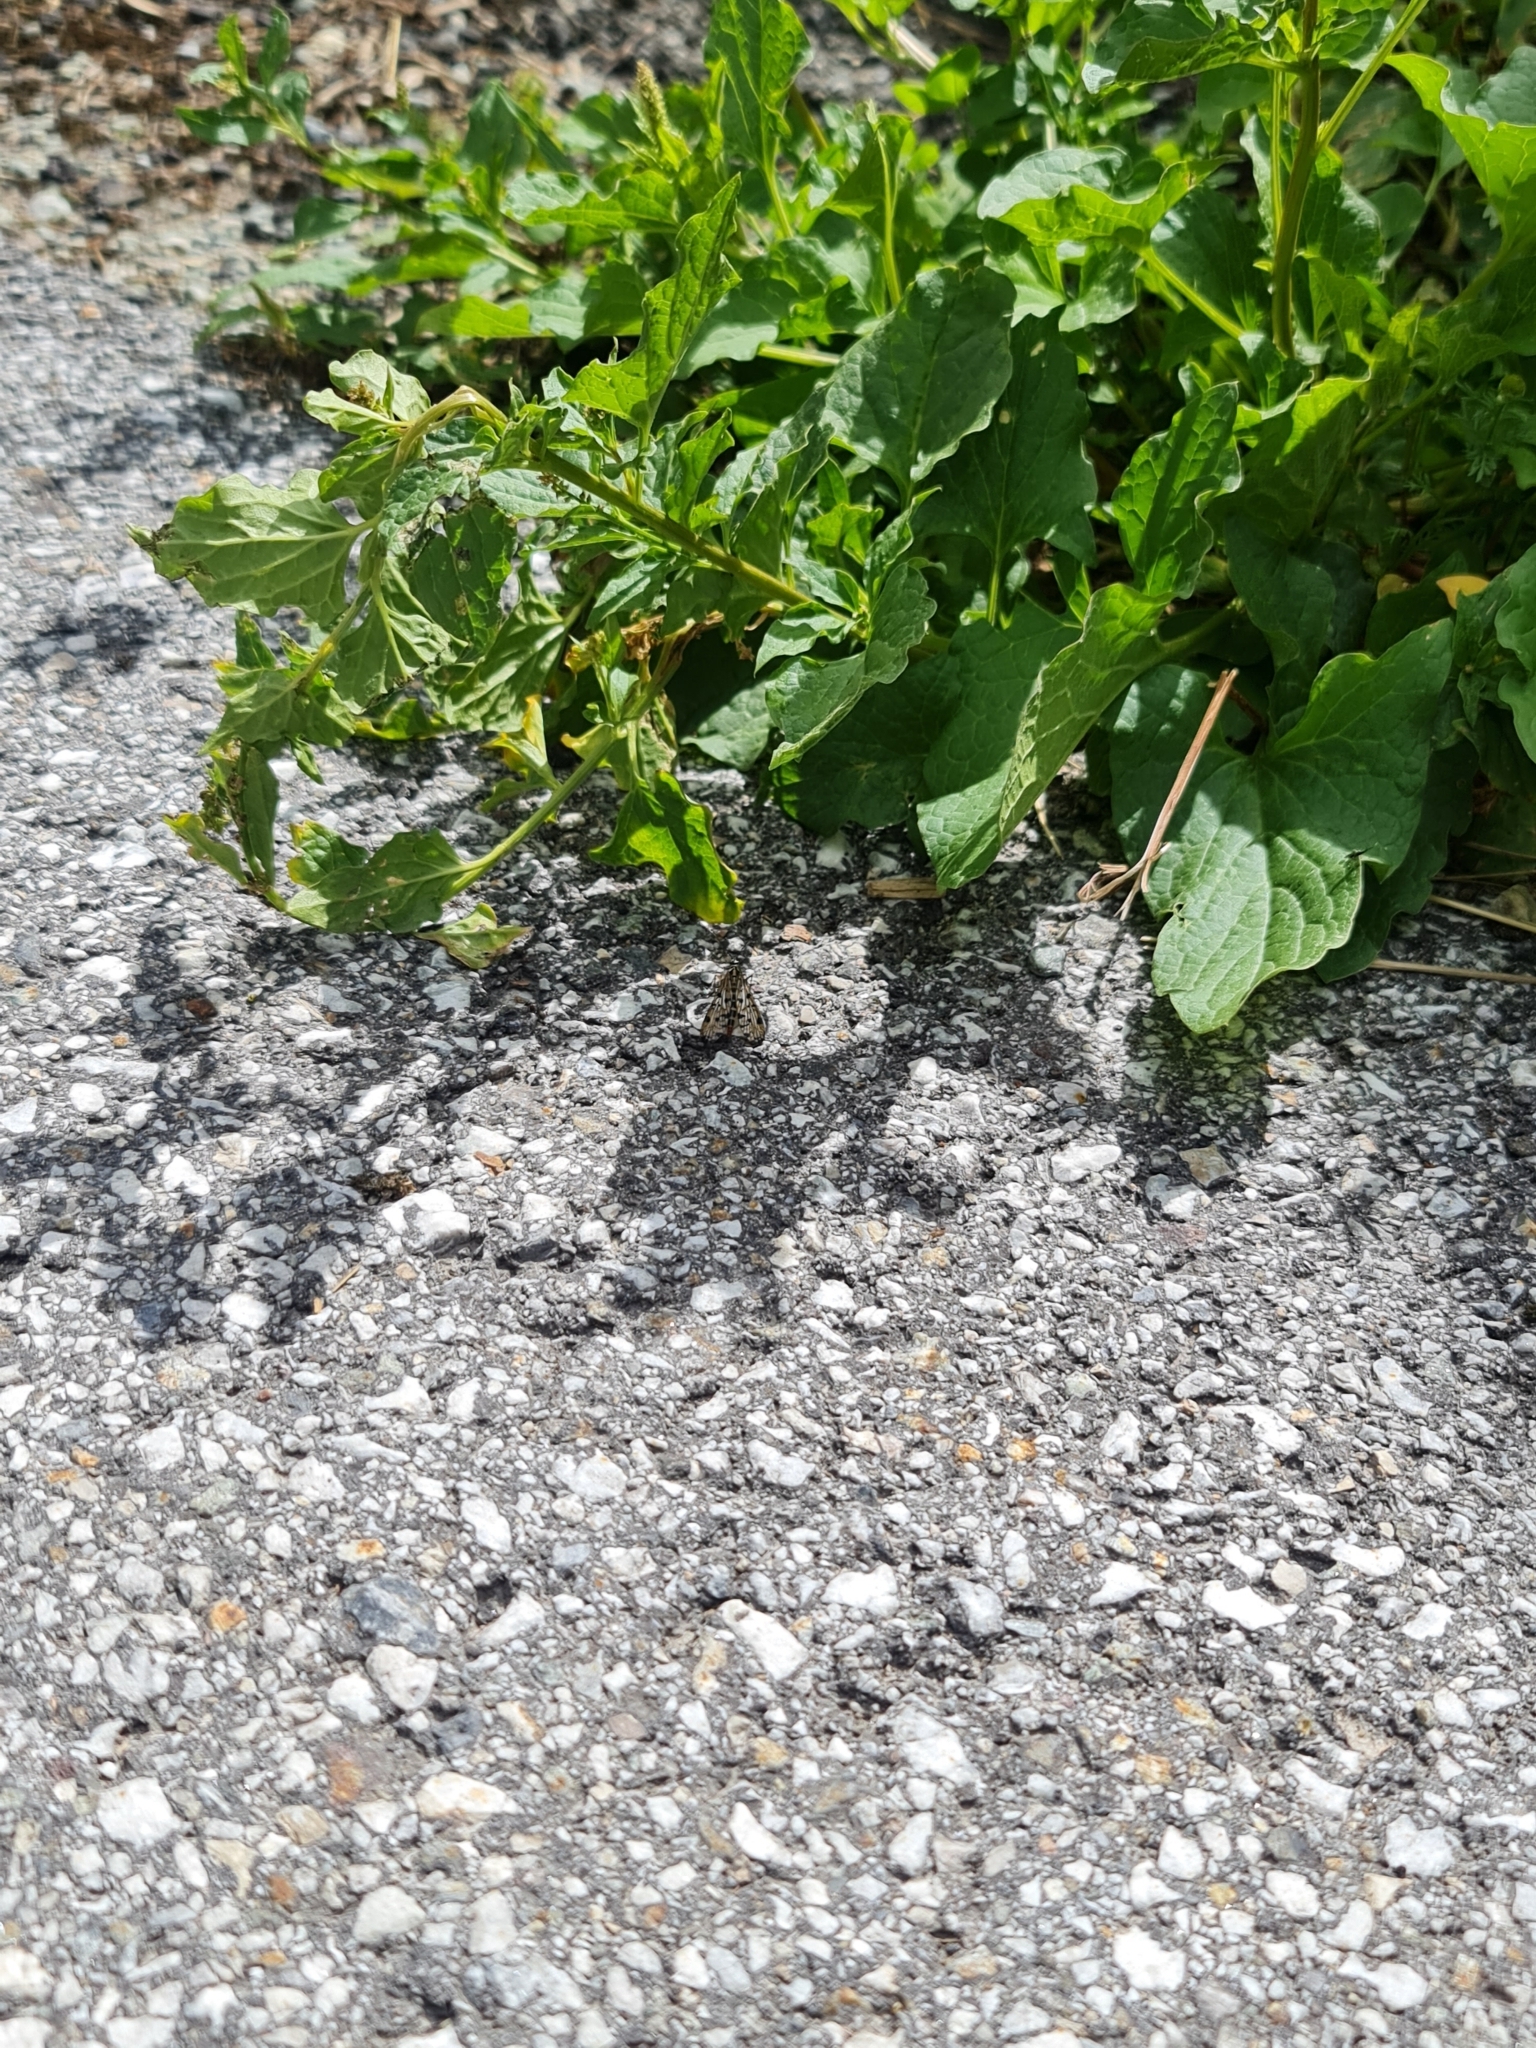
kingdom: Animalia
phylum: Arthropoda
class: Insecta
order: Mecoptera
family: Panorpidae
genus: Panorpa
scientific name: Panorpa germanica
